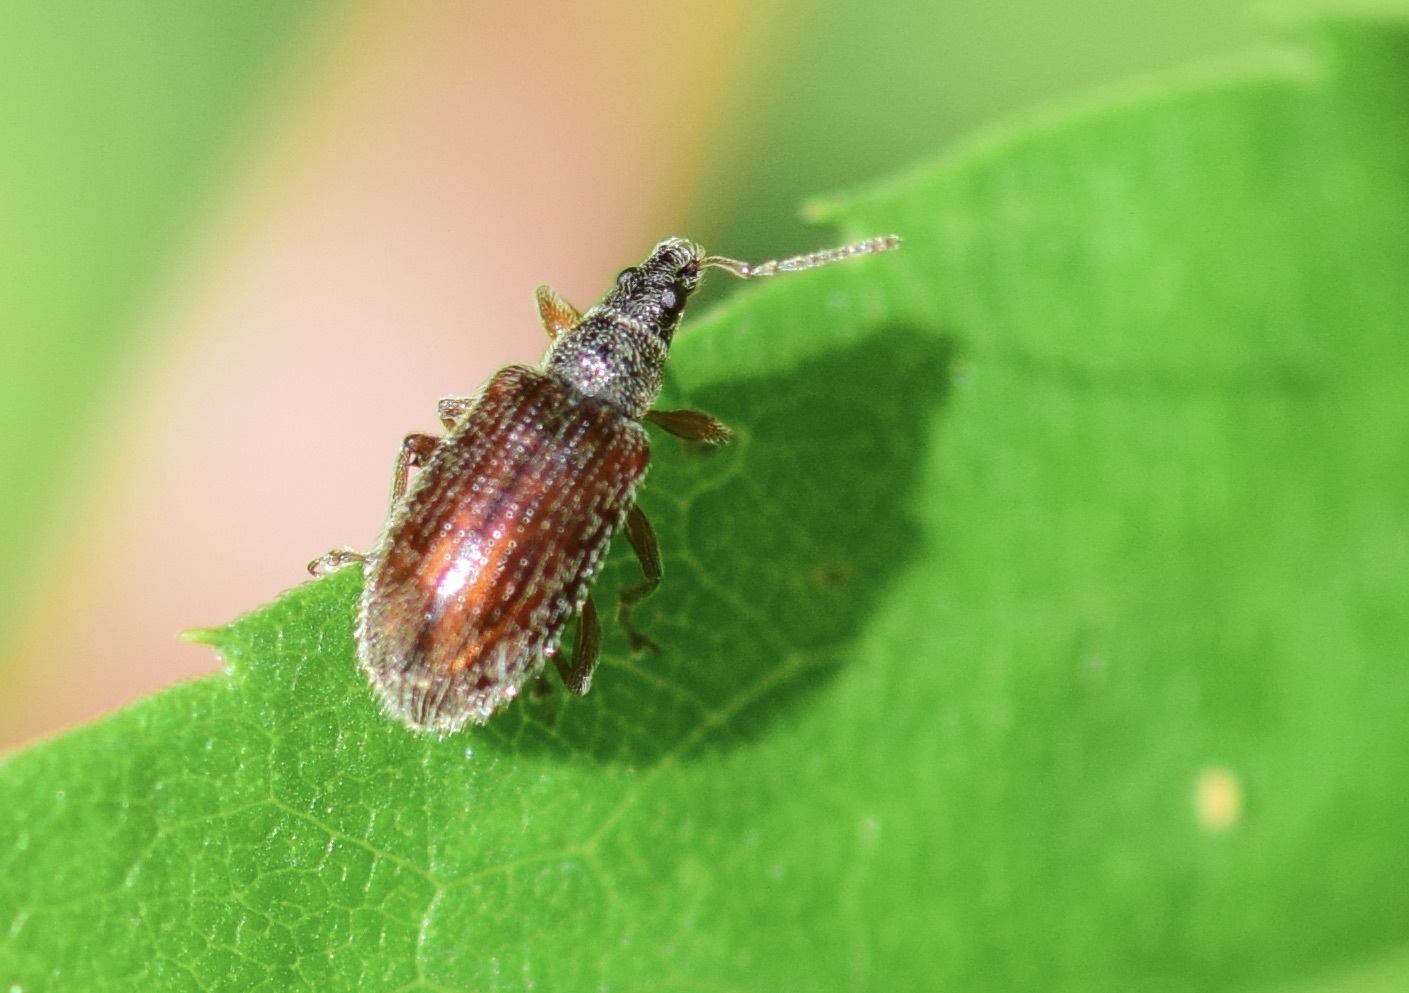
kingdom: Animalia
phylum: Arthropoda
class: Insecta
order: Coleoptera
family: Curculionidae
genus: Phyllobius
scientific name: Phyllobius oblongus
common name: Brown leaf weevil
